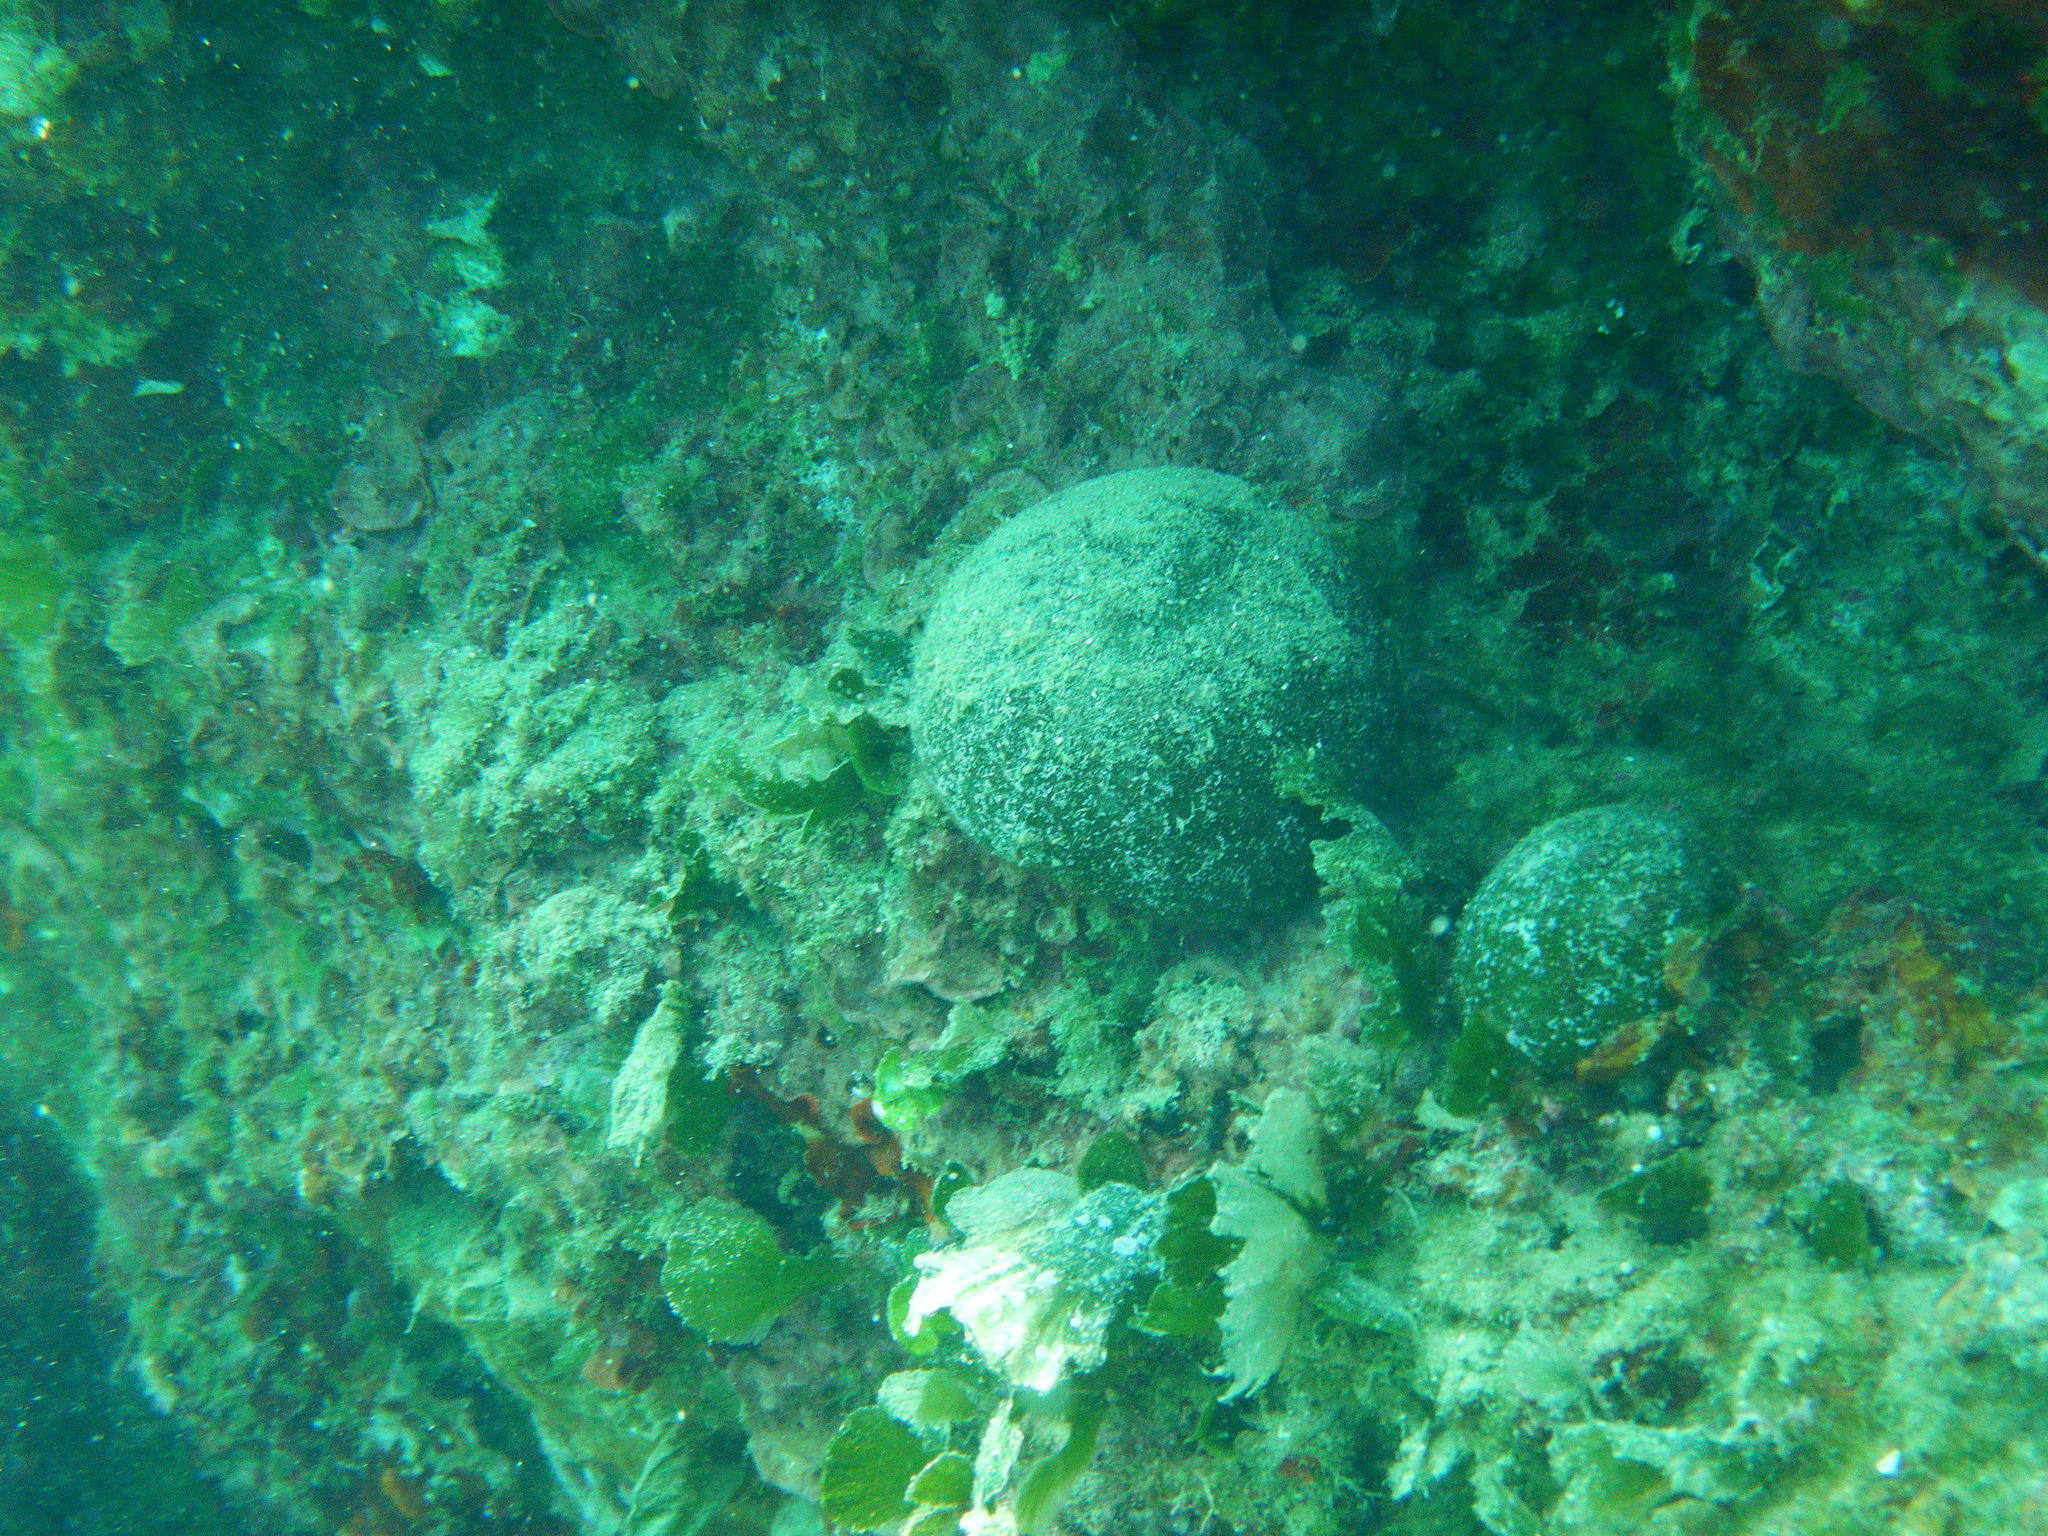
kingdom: Plantae
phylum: Chlorophyta
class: Ulvophyceae
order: Bryopsidales
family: Codiaceae
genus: Codium
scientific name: Codium bursa
